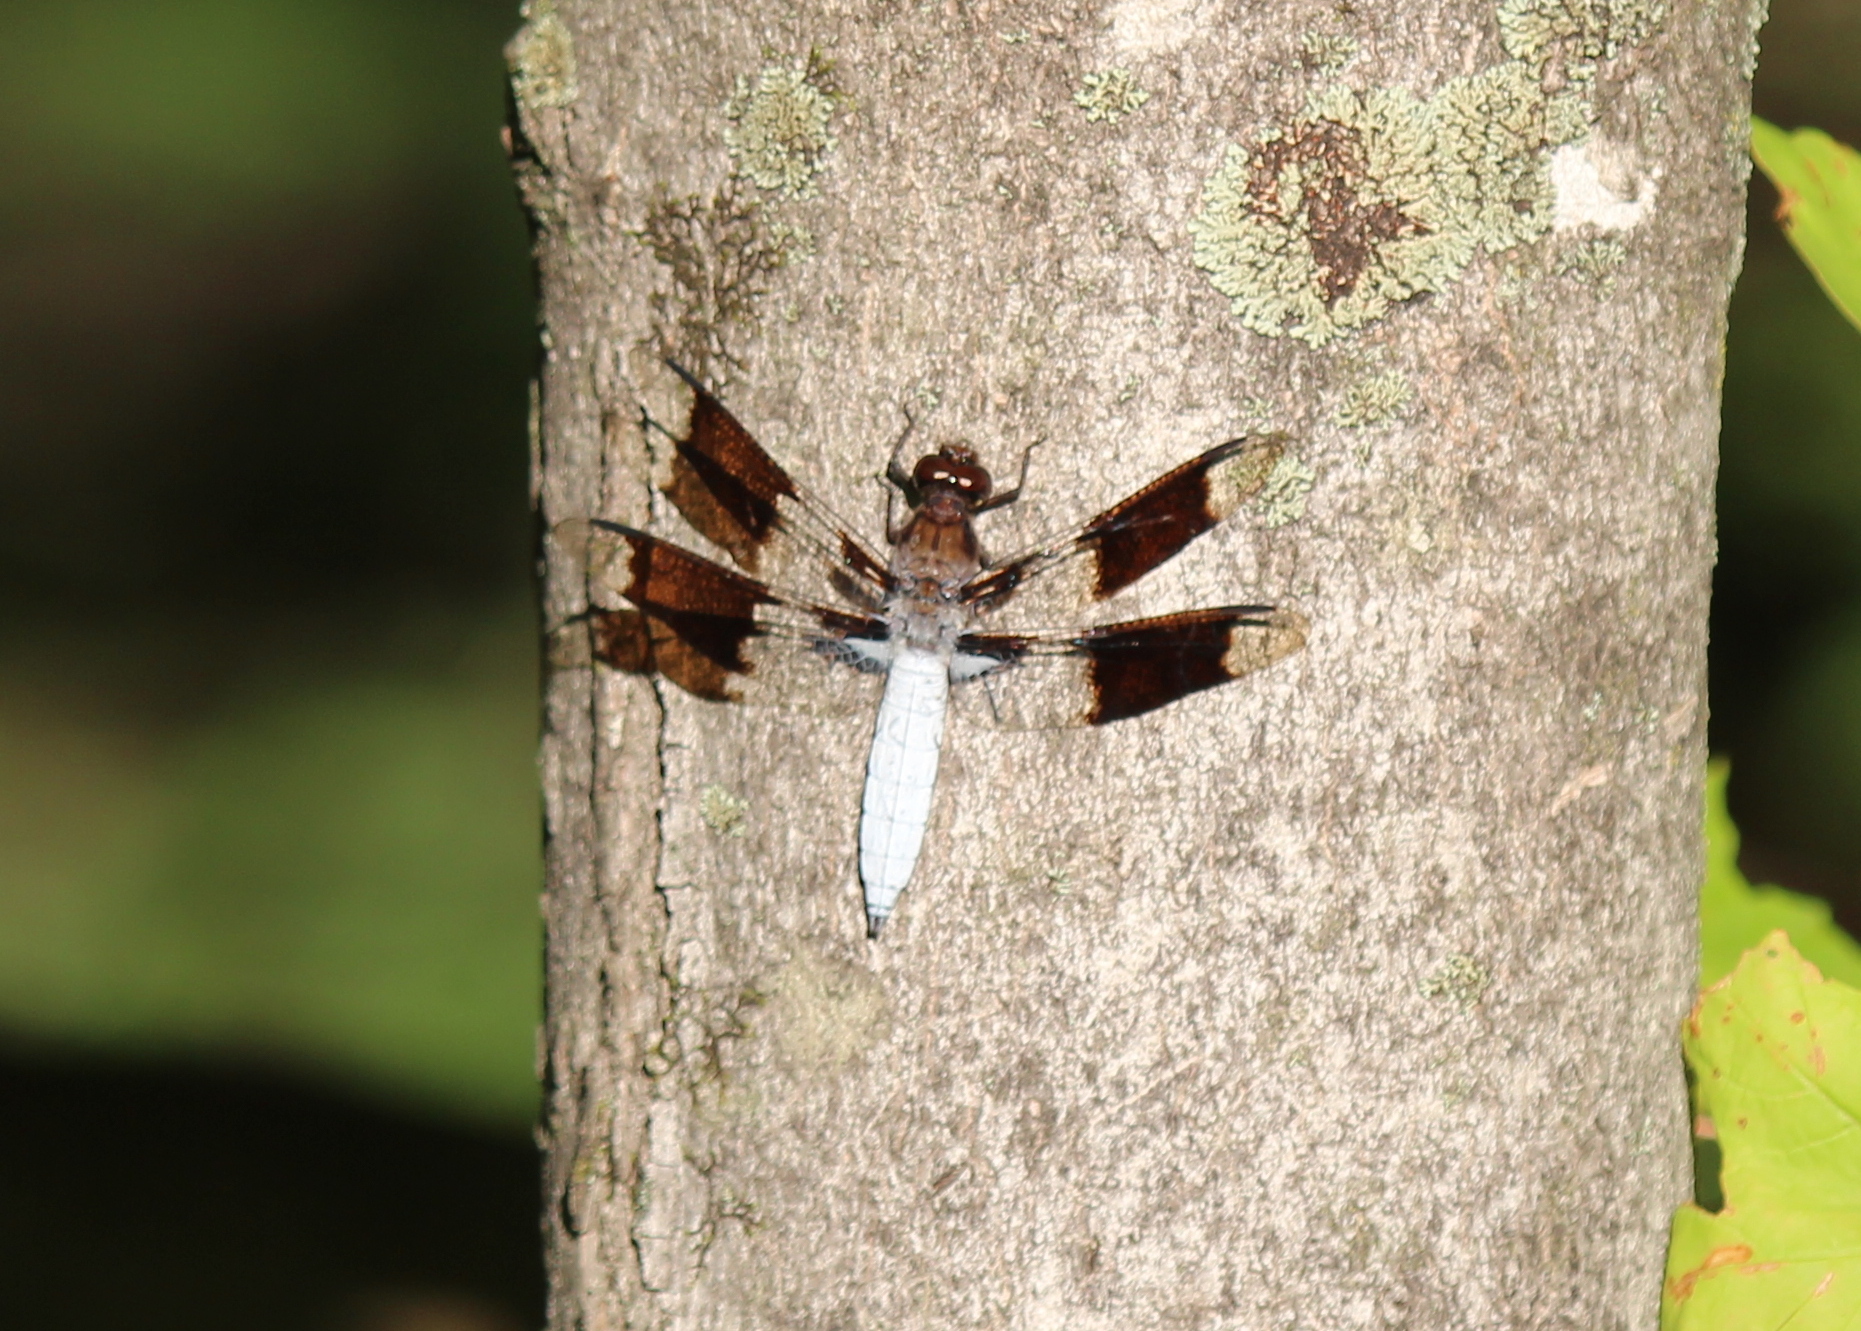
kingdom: Animalia
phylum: Arthropoda
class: Insecta
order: Odonata
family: Libellulidae
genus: Plathemis
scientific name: Plathemis lydia
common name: Common whitetail
